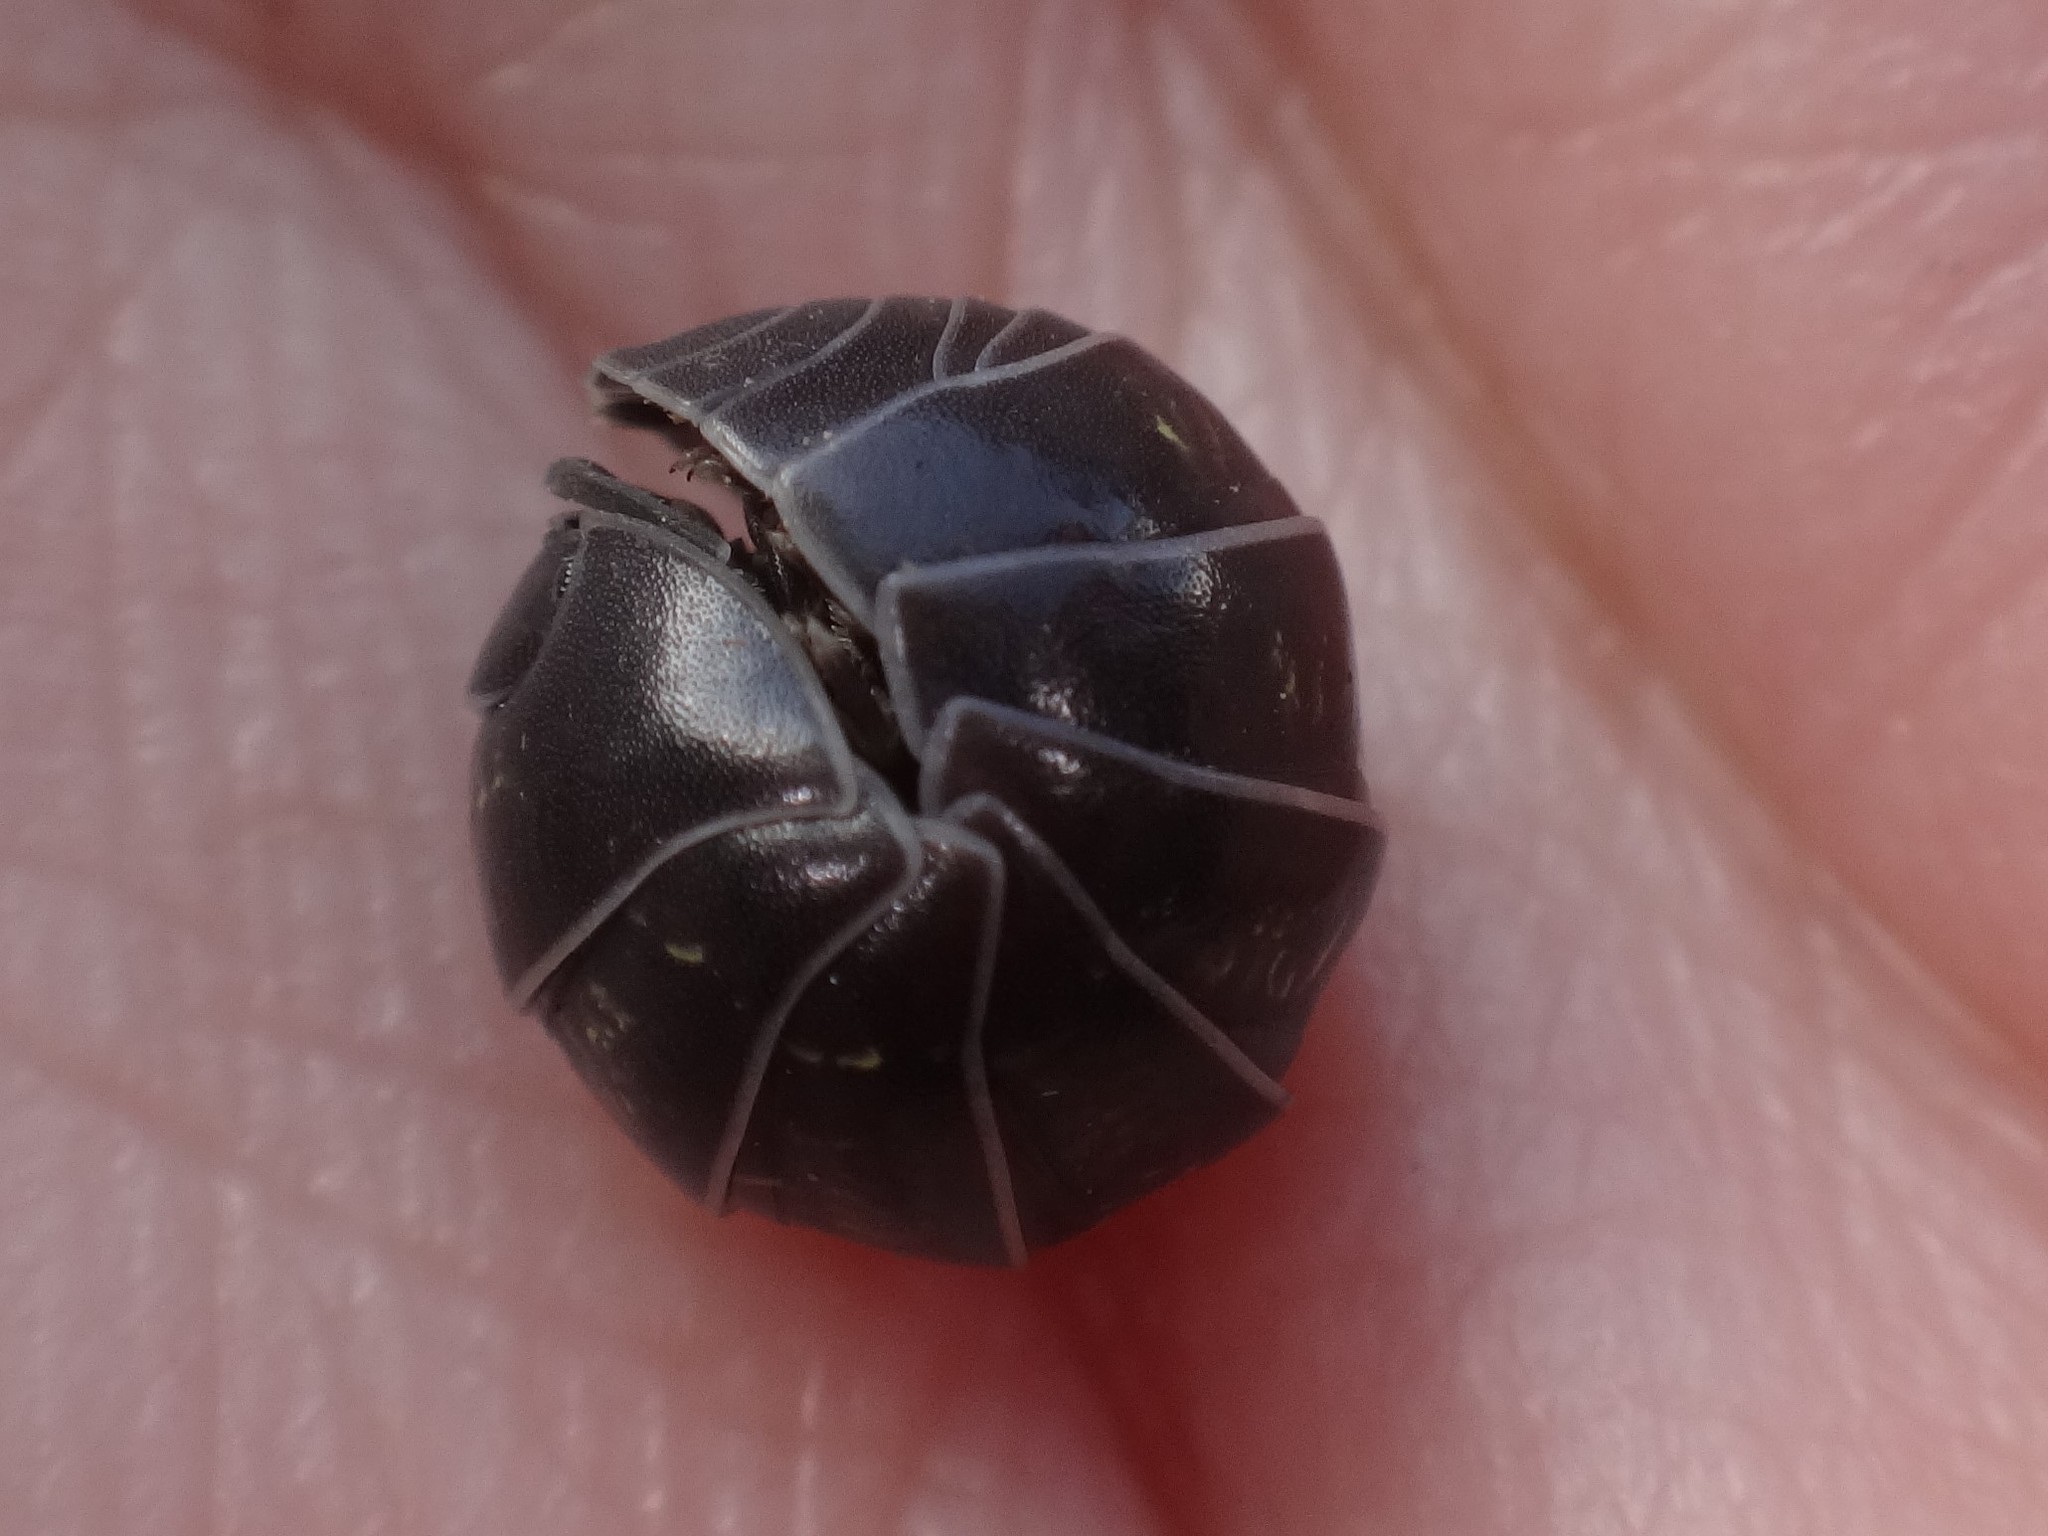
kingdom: Animalia
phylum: Arthropoda
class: Malacostraca
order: Isopoda
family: Armadillidiidae
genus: Armadillidium
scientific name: Armadillidium vulgare
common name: Common pill woodlouse
